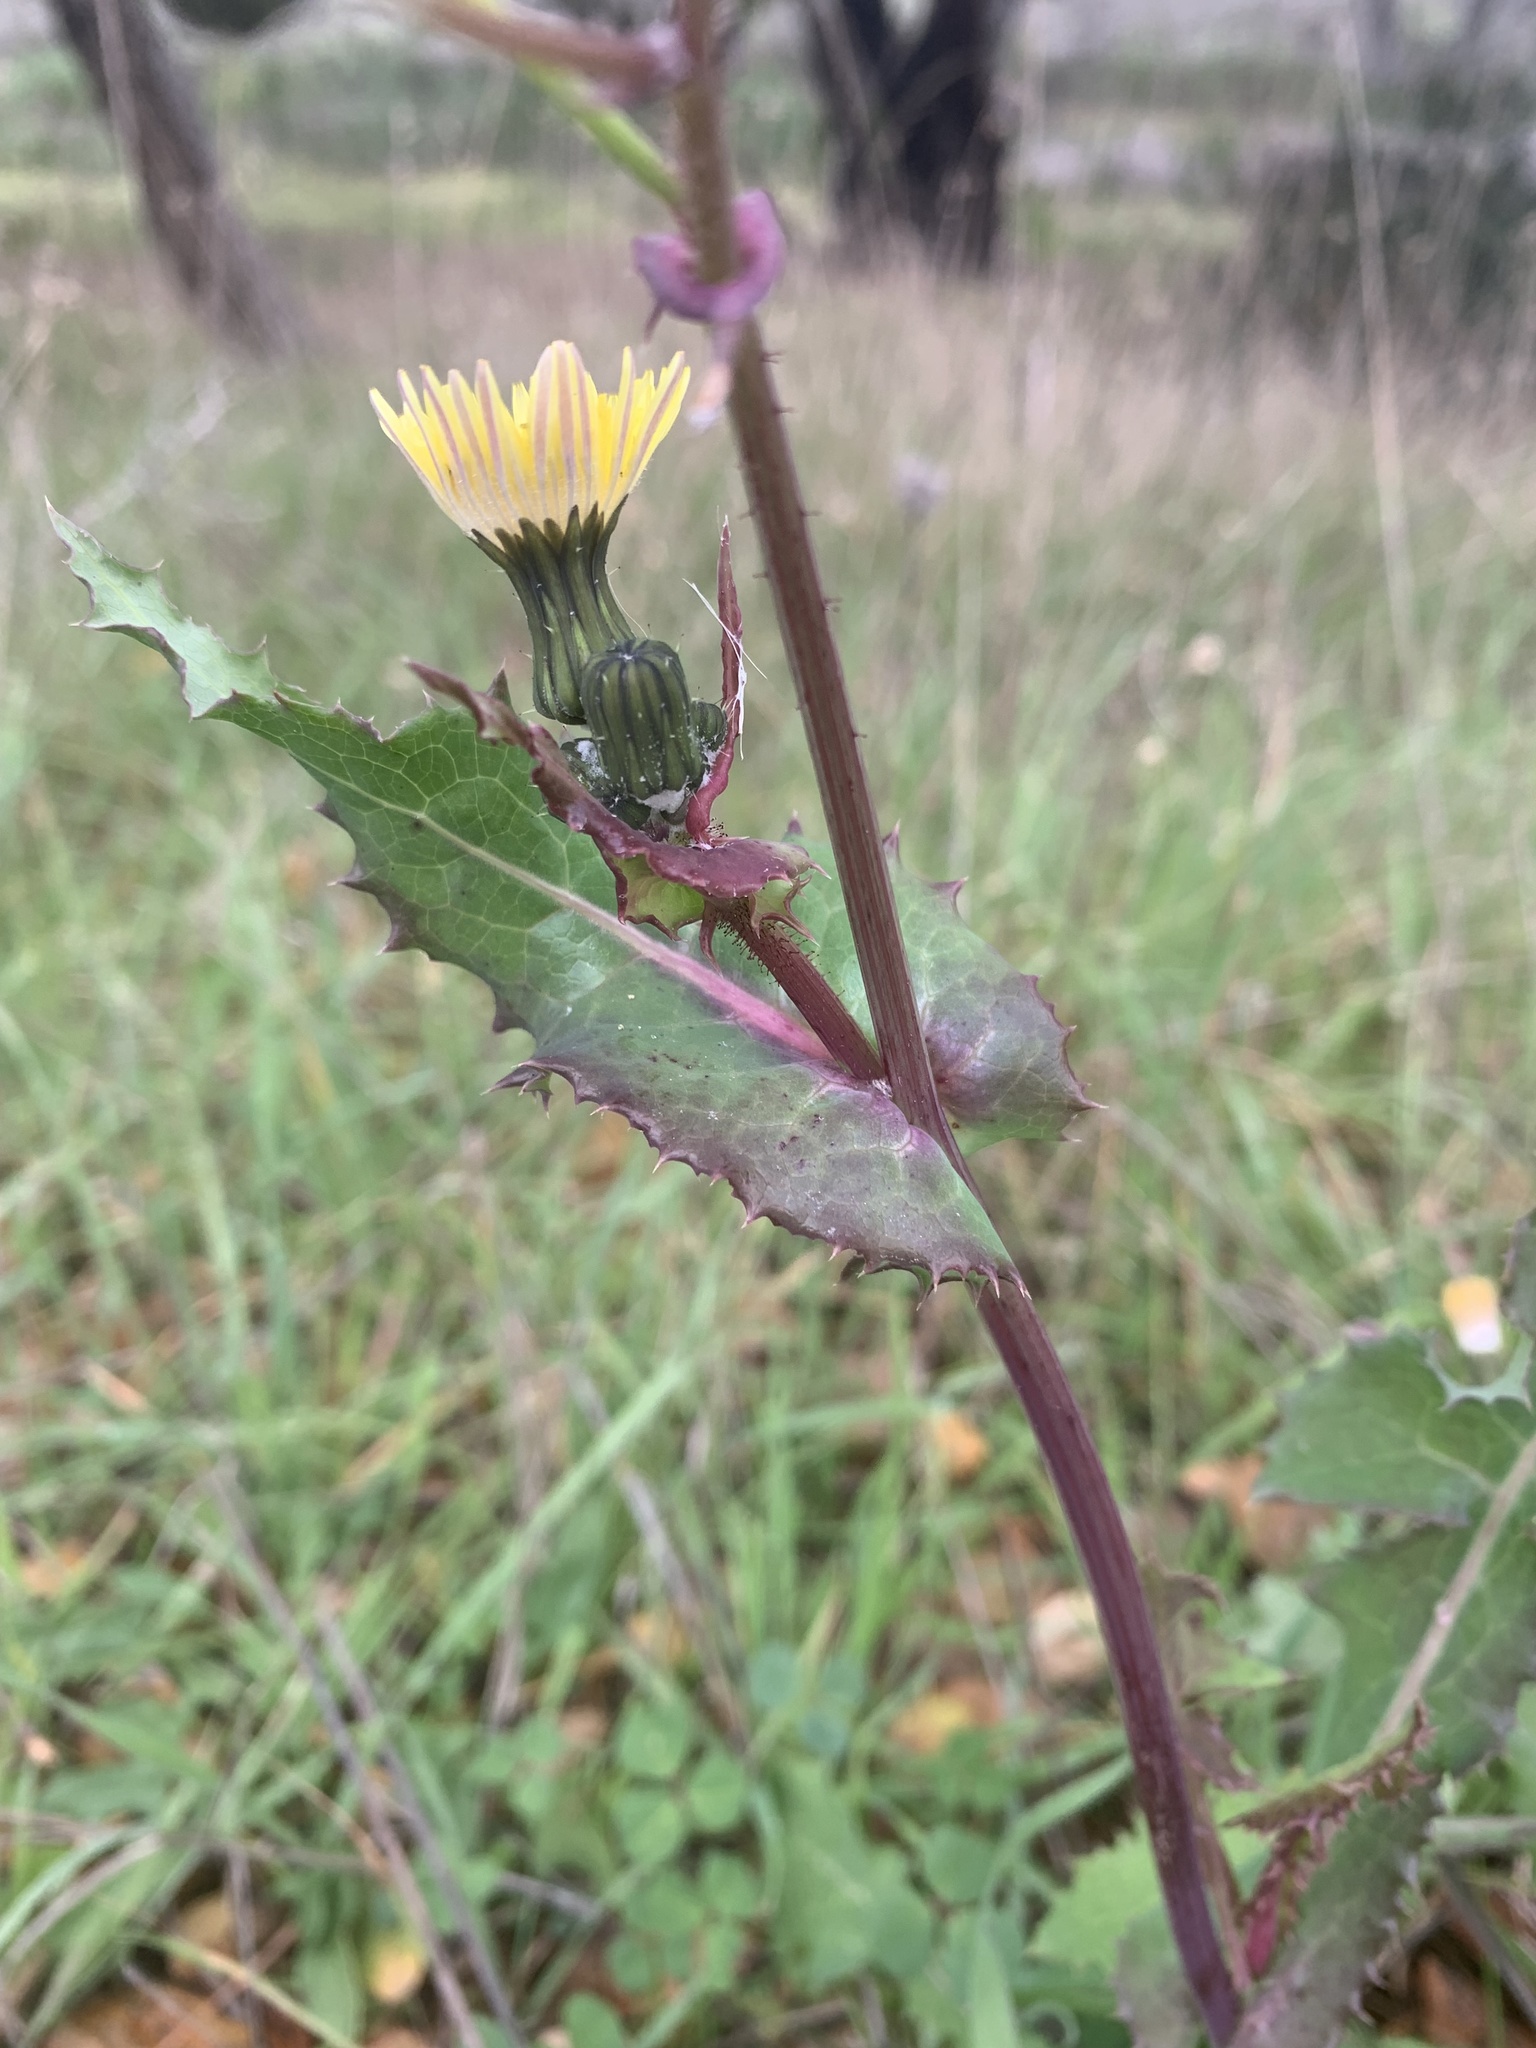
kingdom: Plantae
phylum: Tracheophyta
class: Magnoliopsida
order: Asterales
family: Asteraceae
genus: Sonchus
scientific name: Sonchus asper
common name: Prickly sow-thistle
